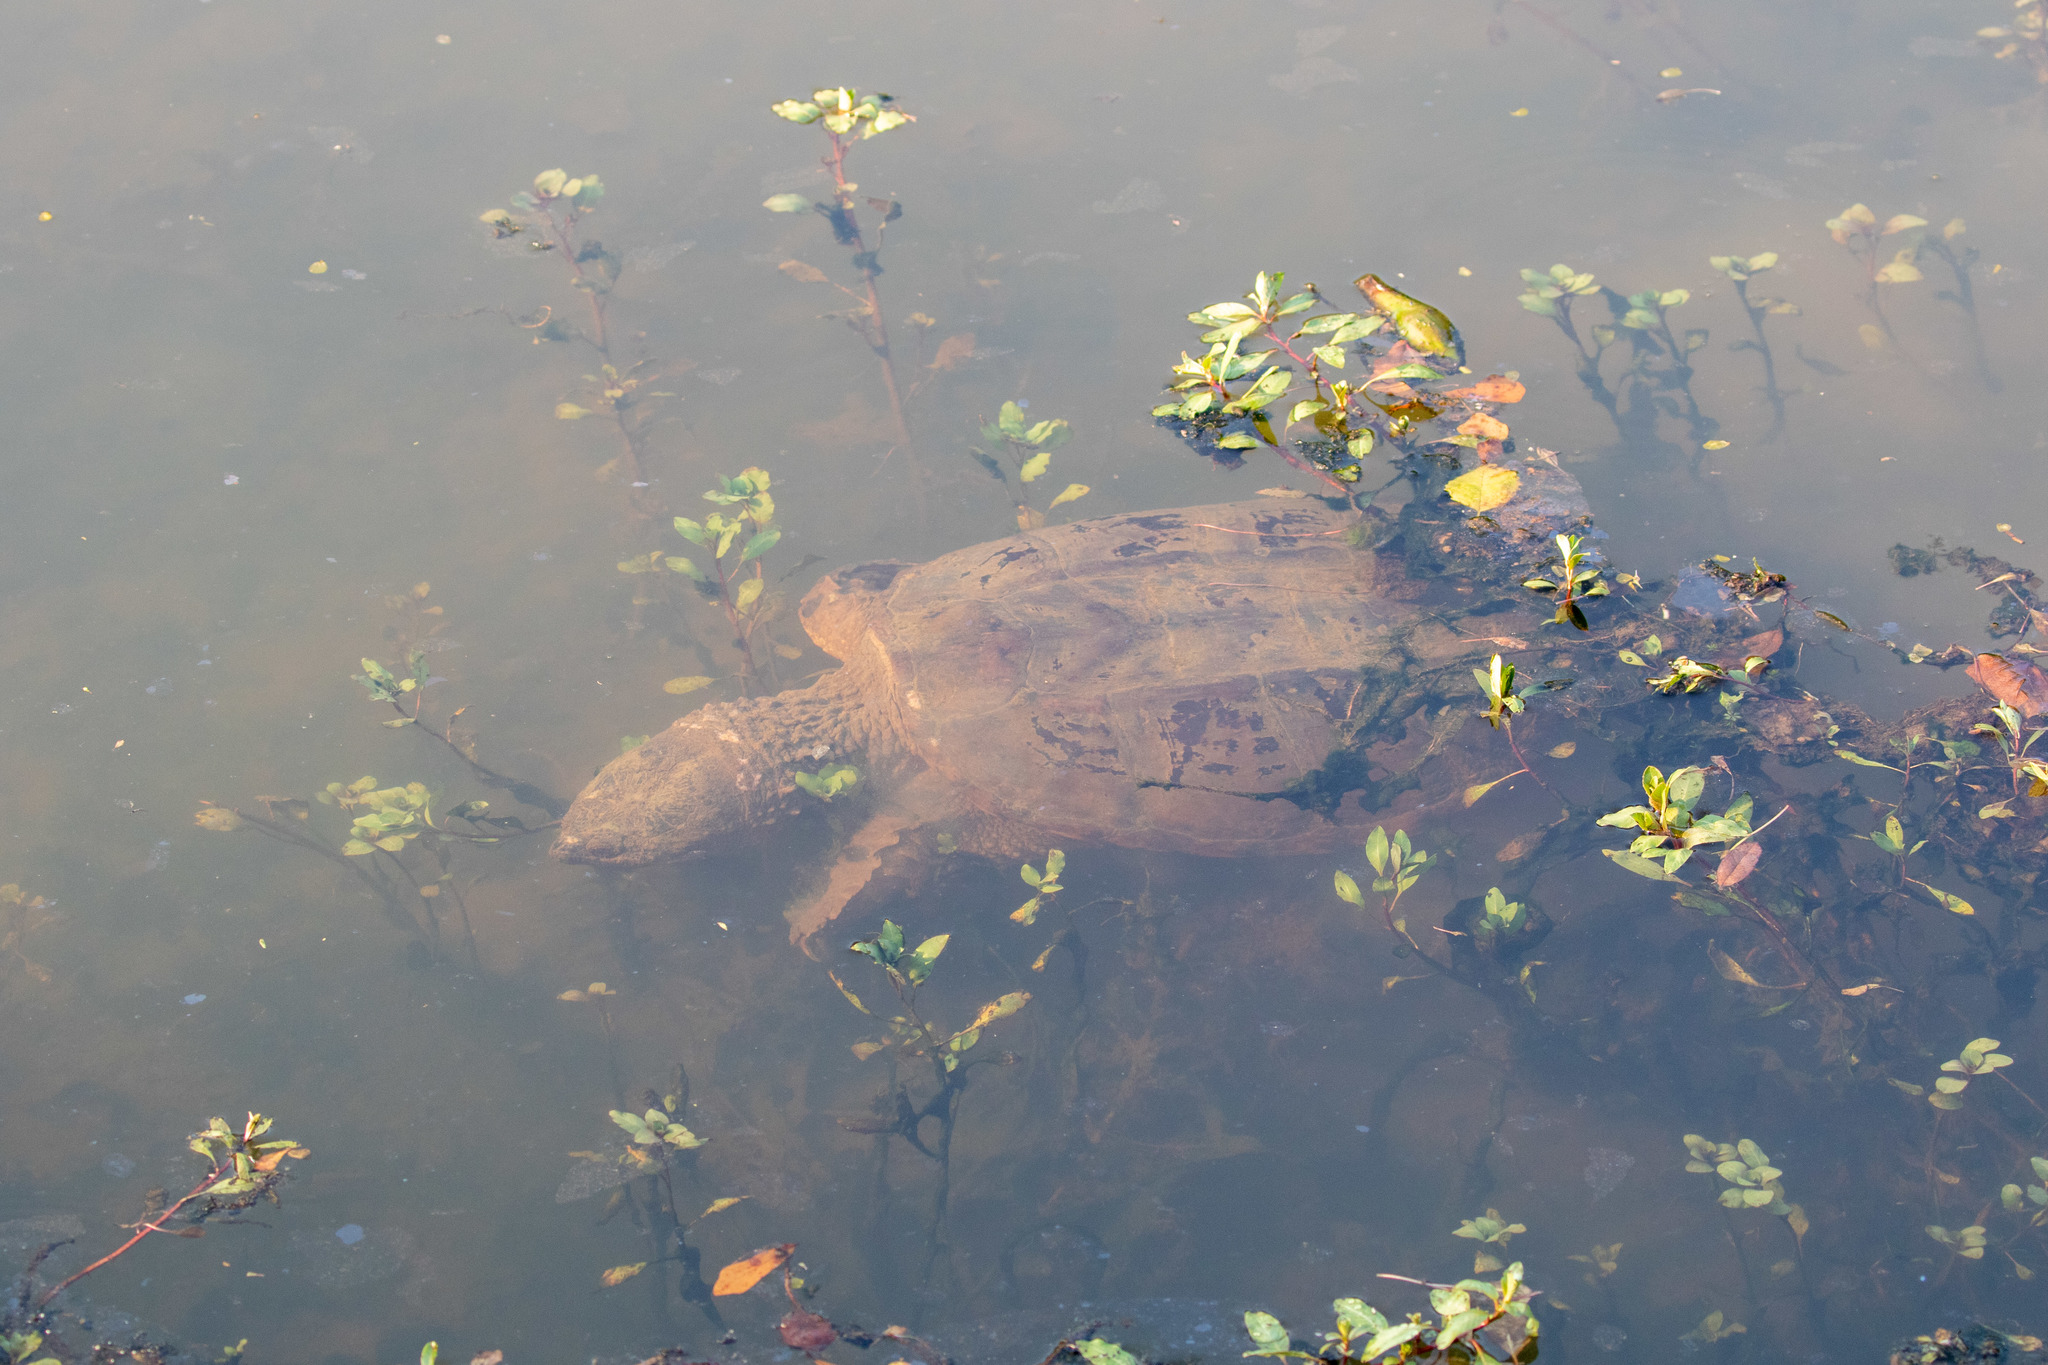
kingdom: Animalia
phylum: Chordata
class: Testudines
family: Chelydridae
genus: Chelydra
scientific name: Chelydra serpentina
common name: Common snapping turtle
